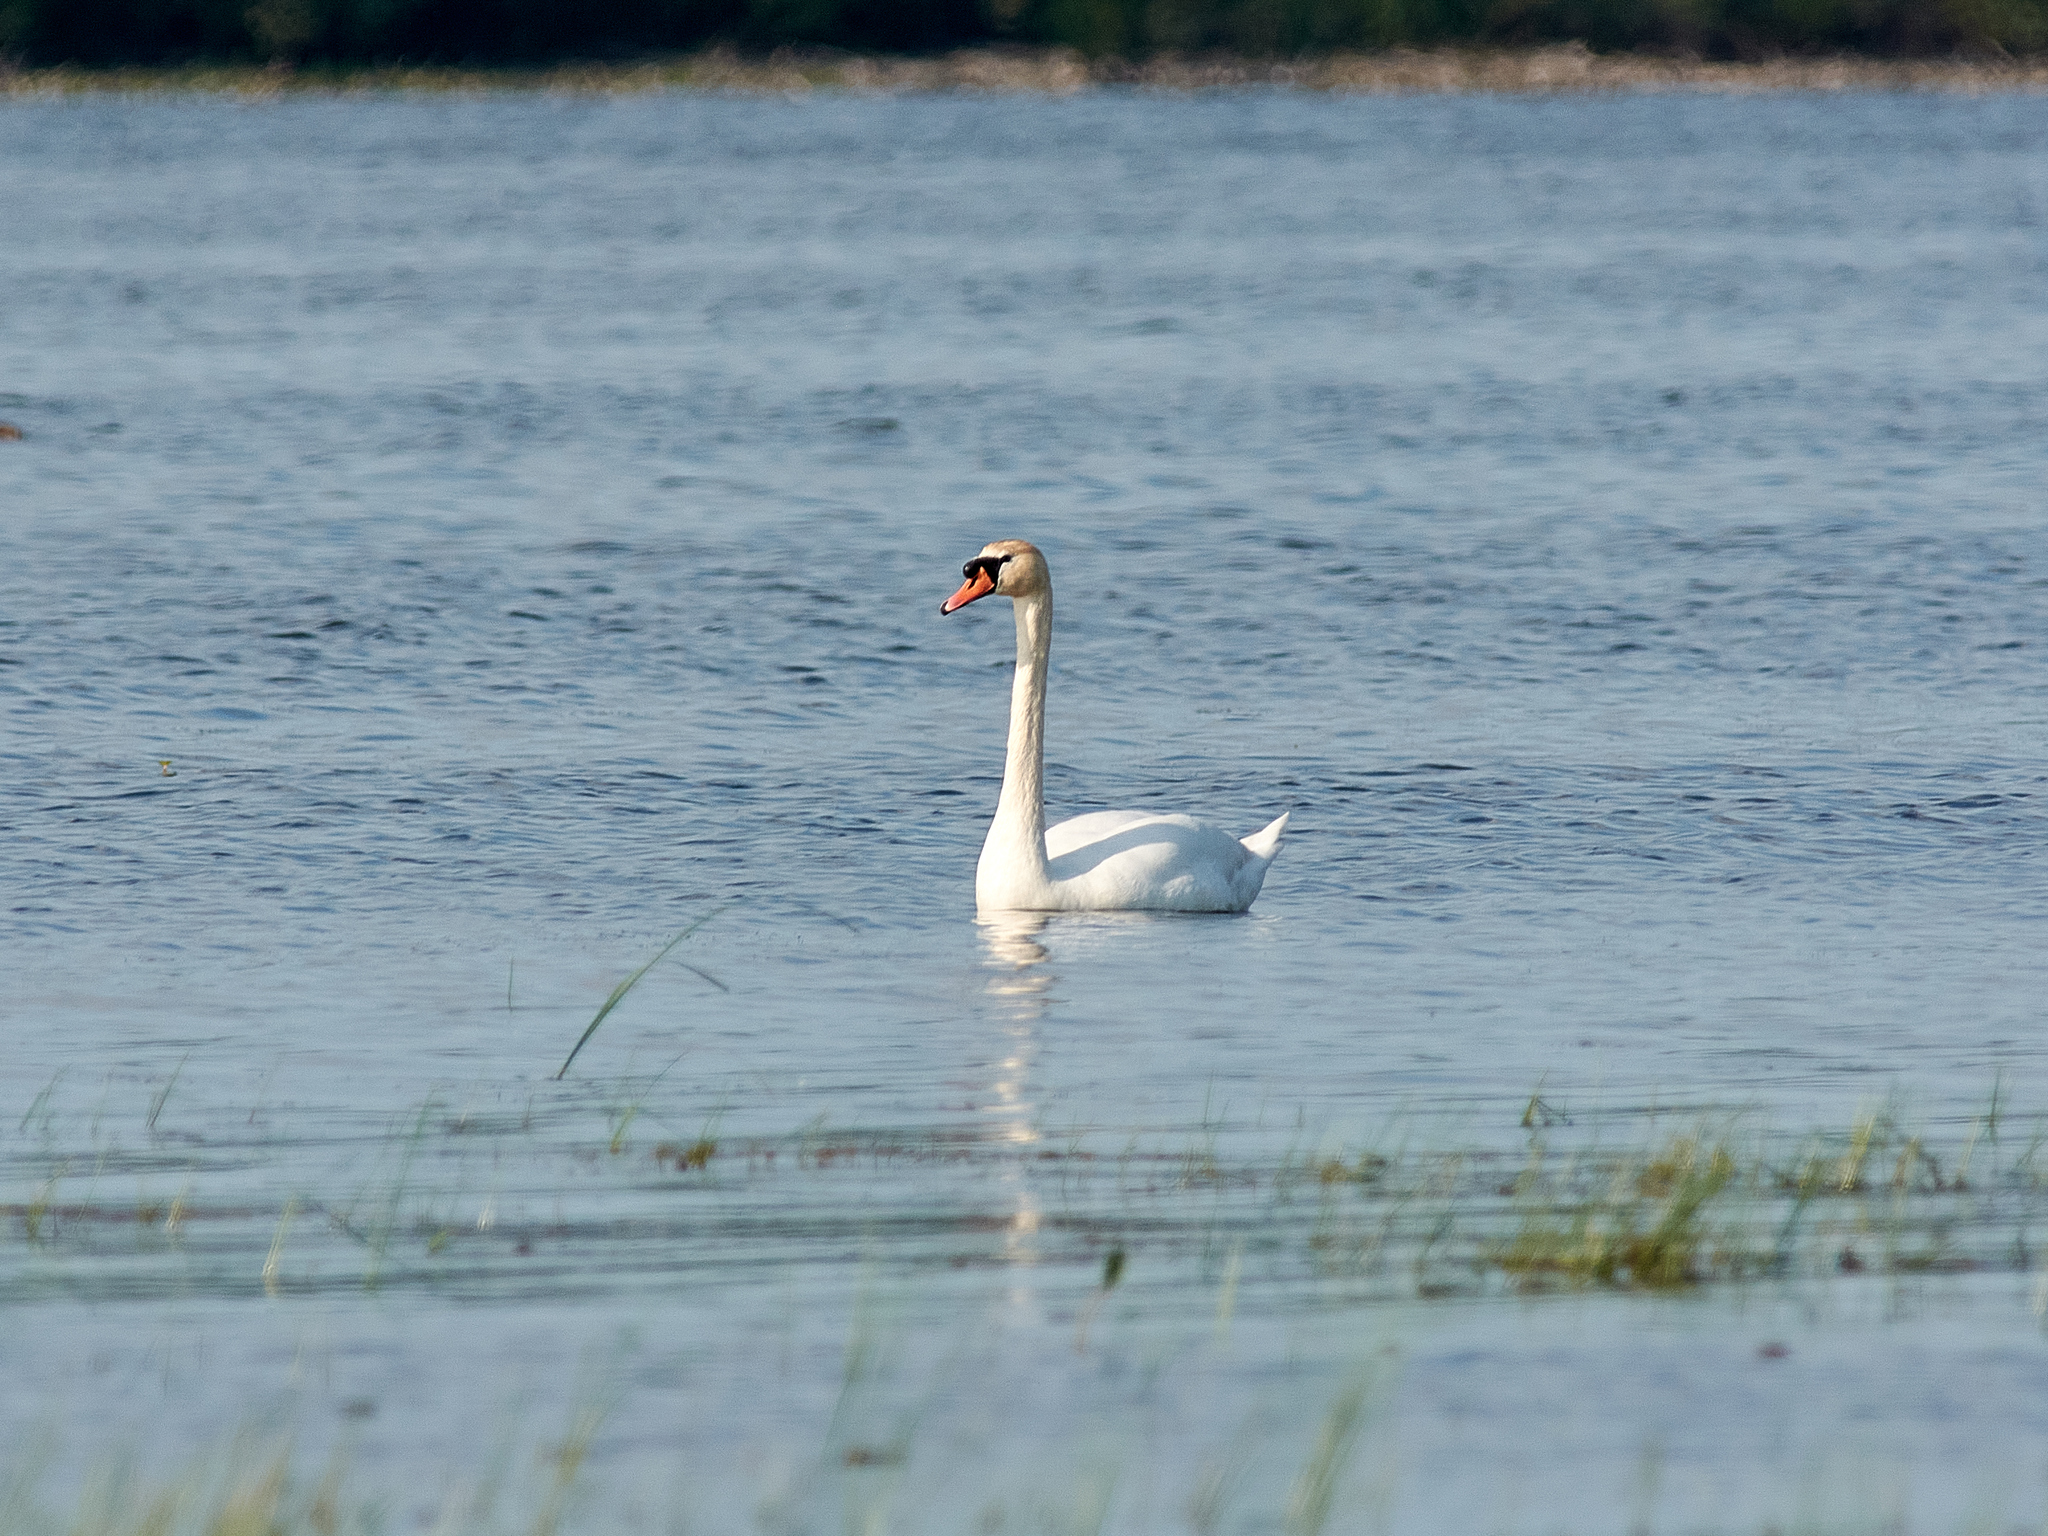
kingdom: Animalia
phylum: Chordata
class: Aves
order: Anseriformes
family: Anatidae
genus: Cygnus
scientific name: Cygnus olor
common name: Mute swan
